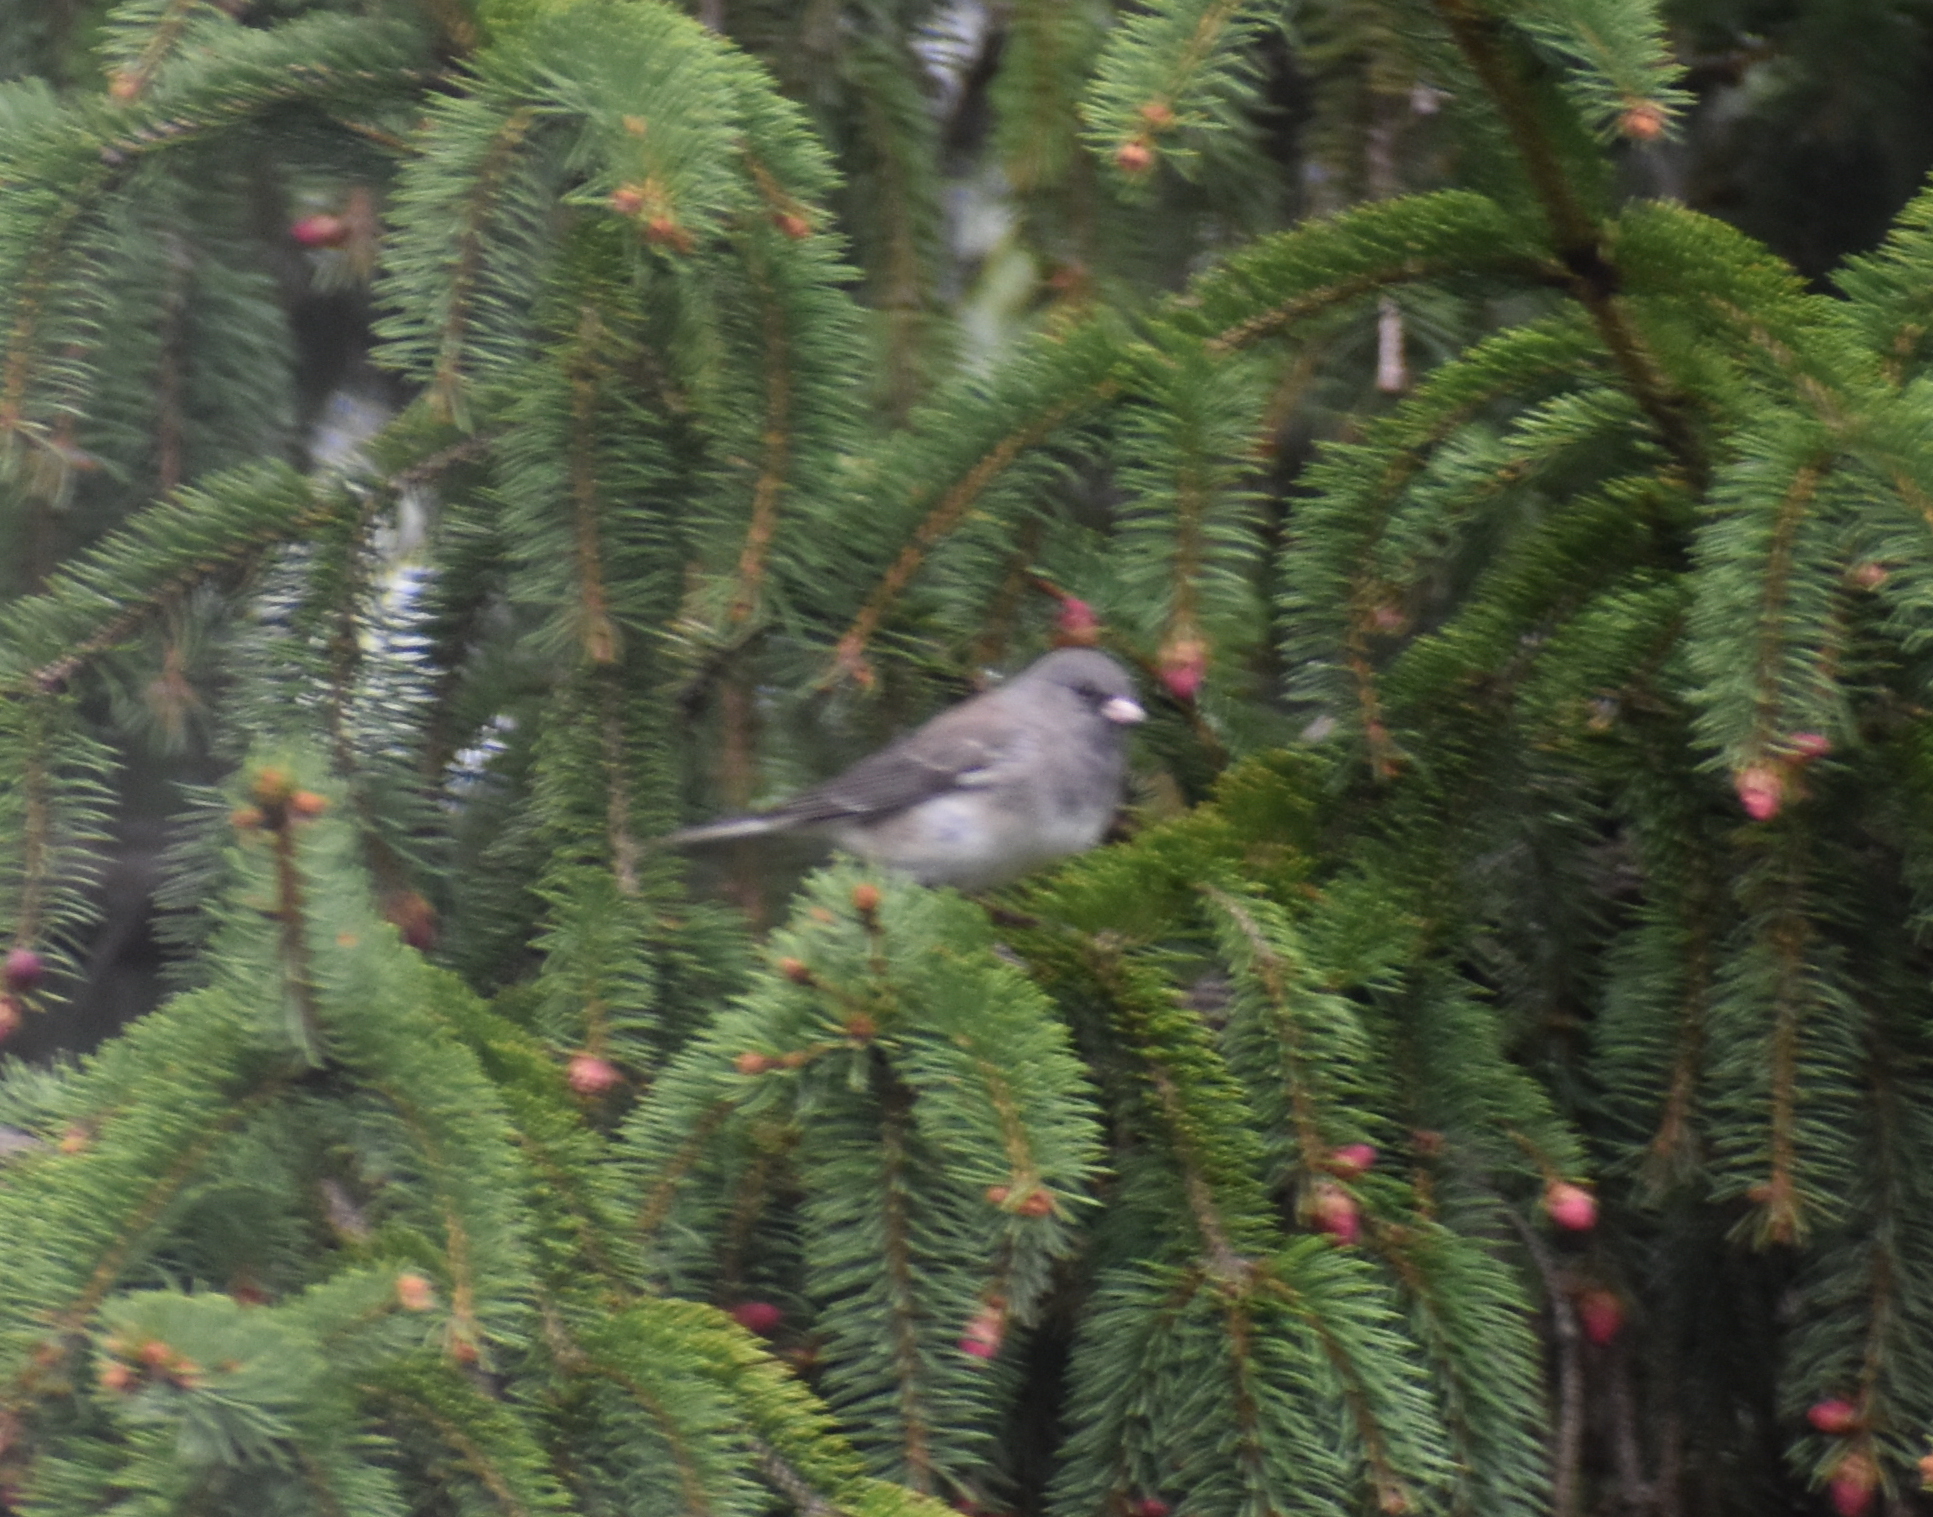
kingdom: Animalia
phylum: Chordata
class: Aves
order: Passeriformes
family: Passerellidae
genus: Junco
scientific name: Junco hyemalis
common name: Dark-eyed junco
